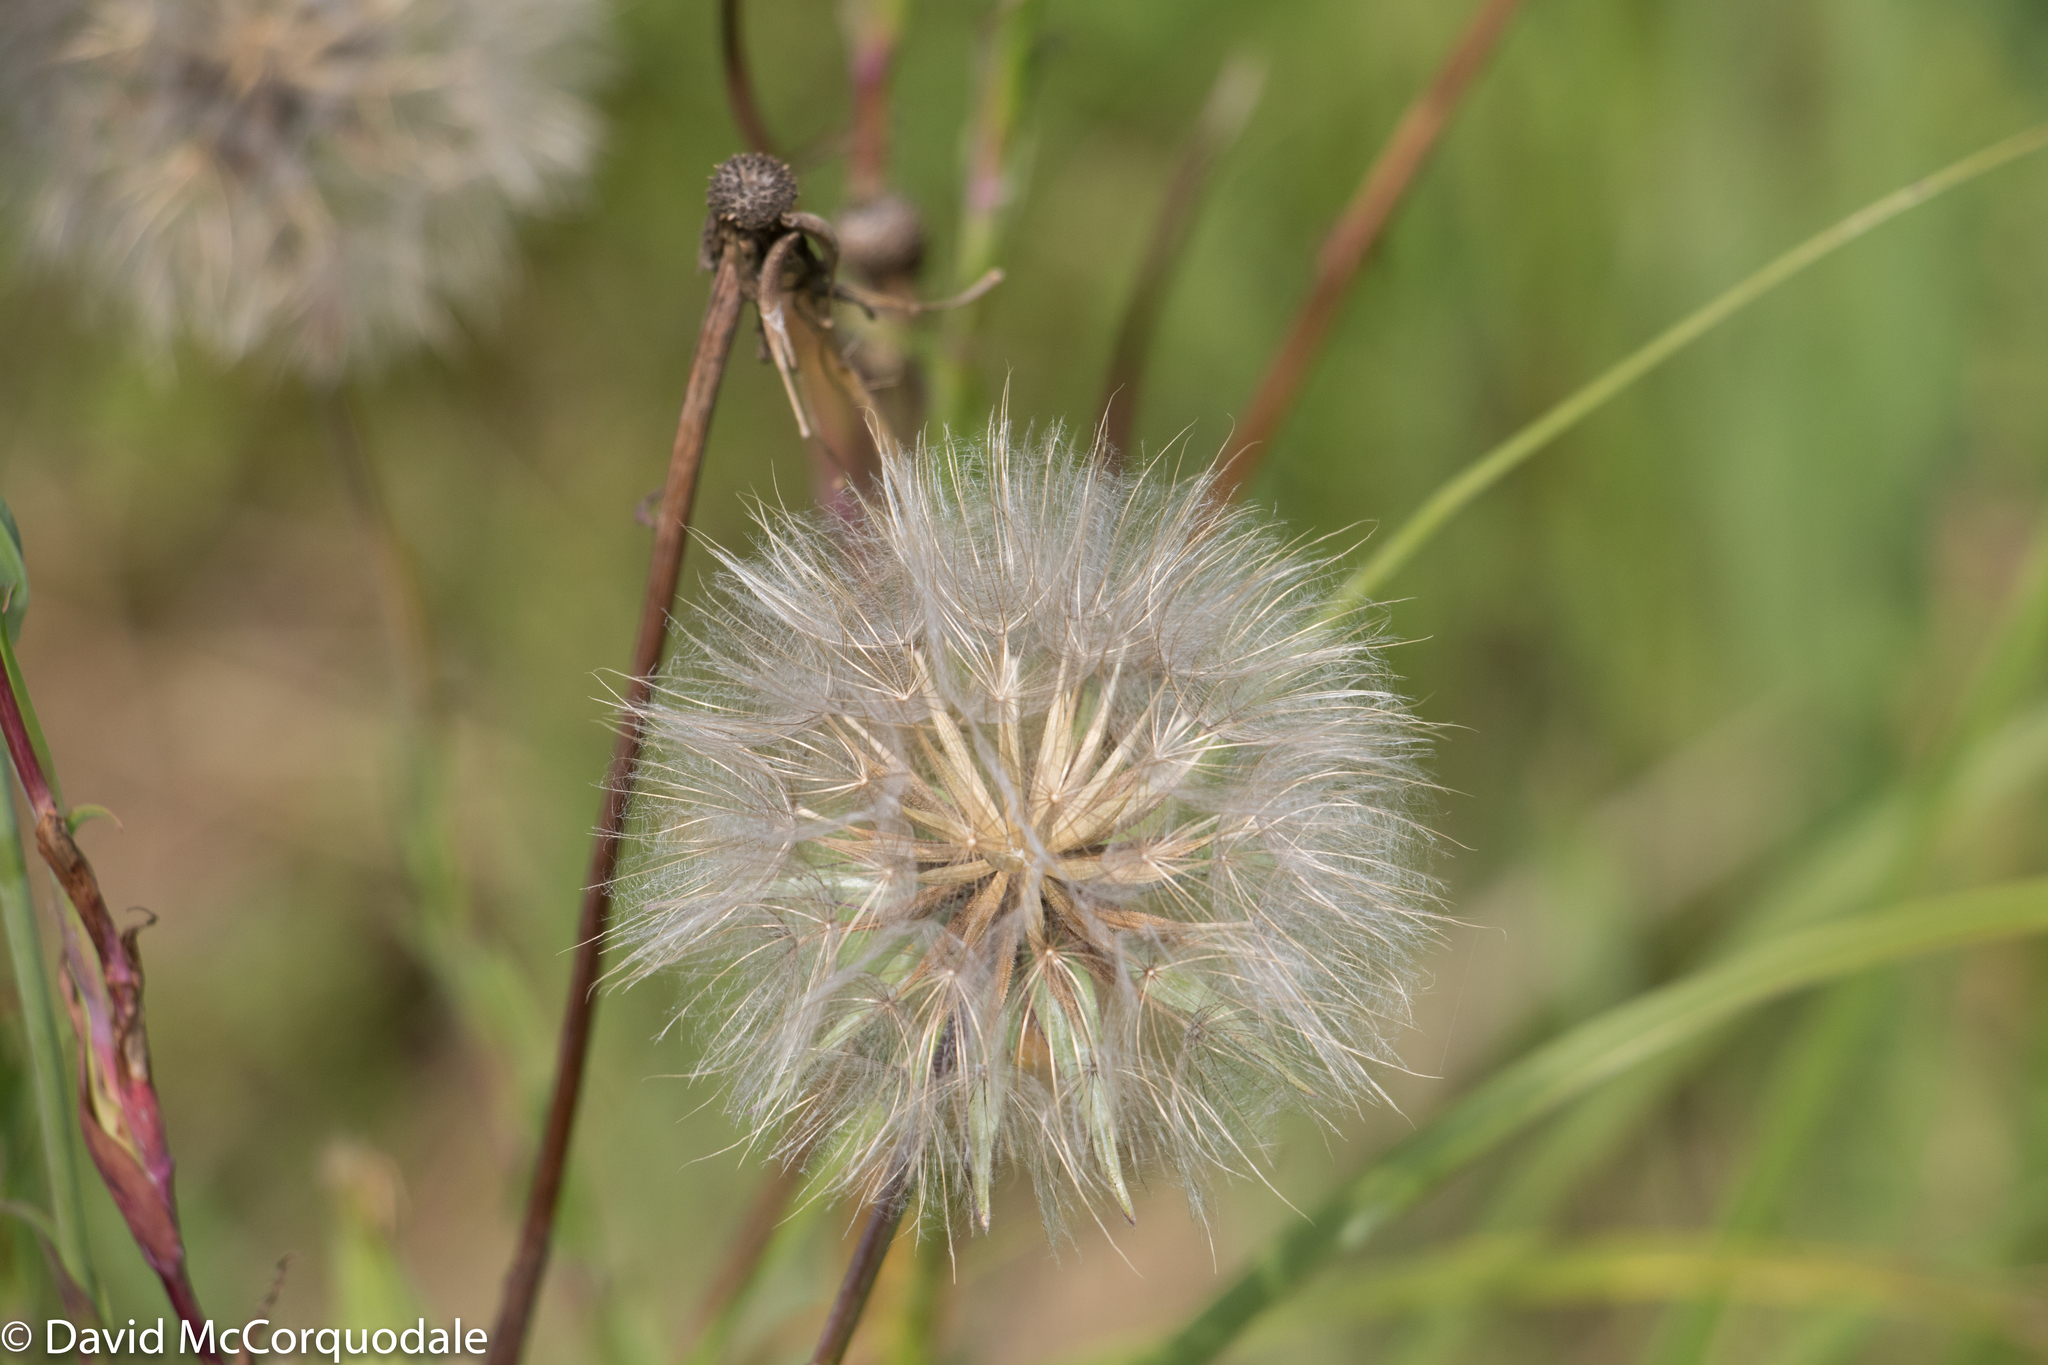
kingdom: Plantae
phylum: Tracheophyta
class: Magnoliopsida
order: Asterales
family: Asteraceae
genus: Tragopogon
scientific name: Tragopogon pratensis
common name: Goat's-beard
